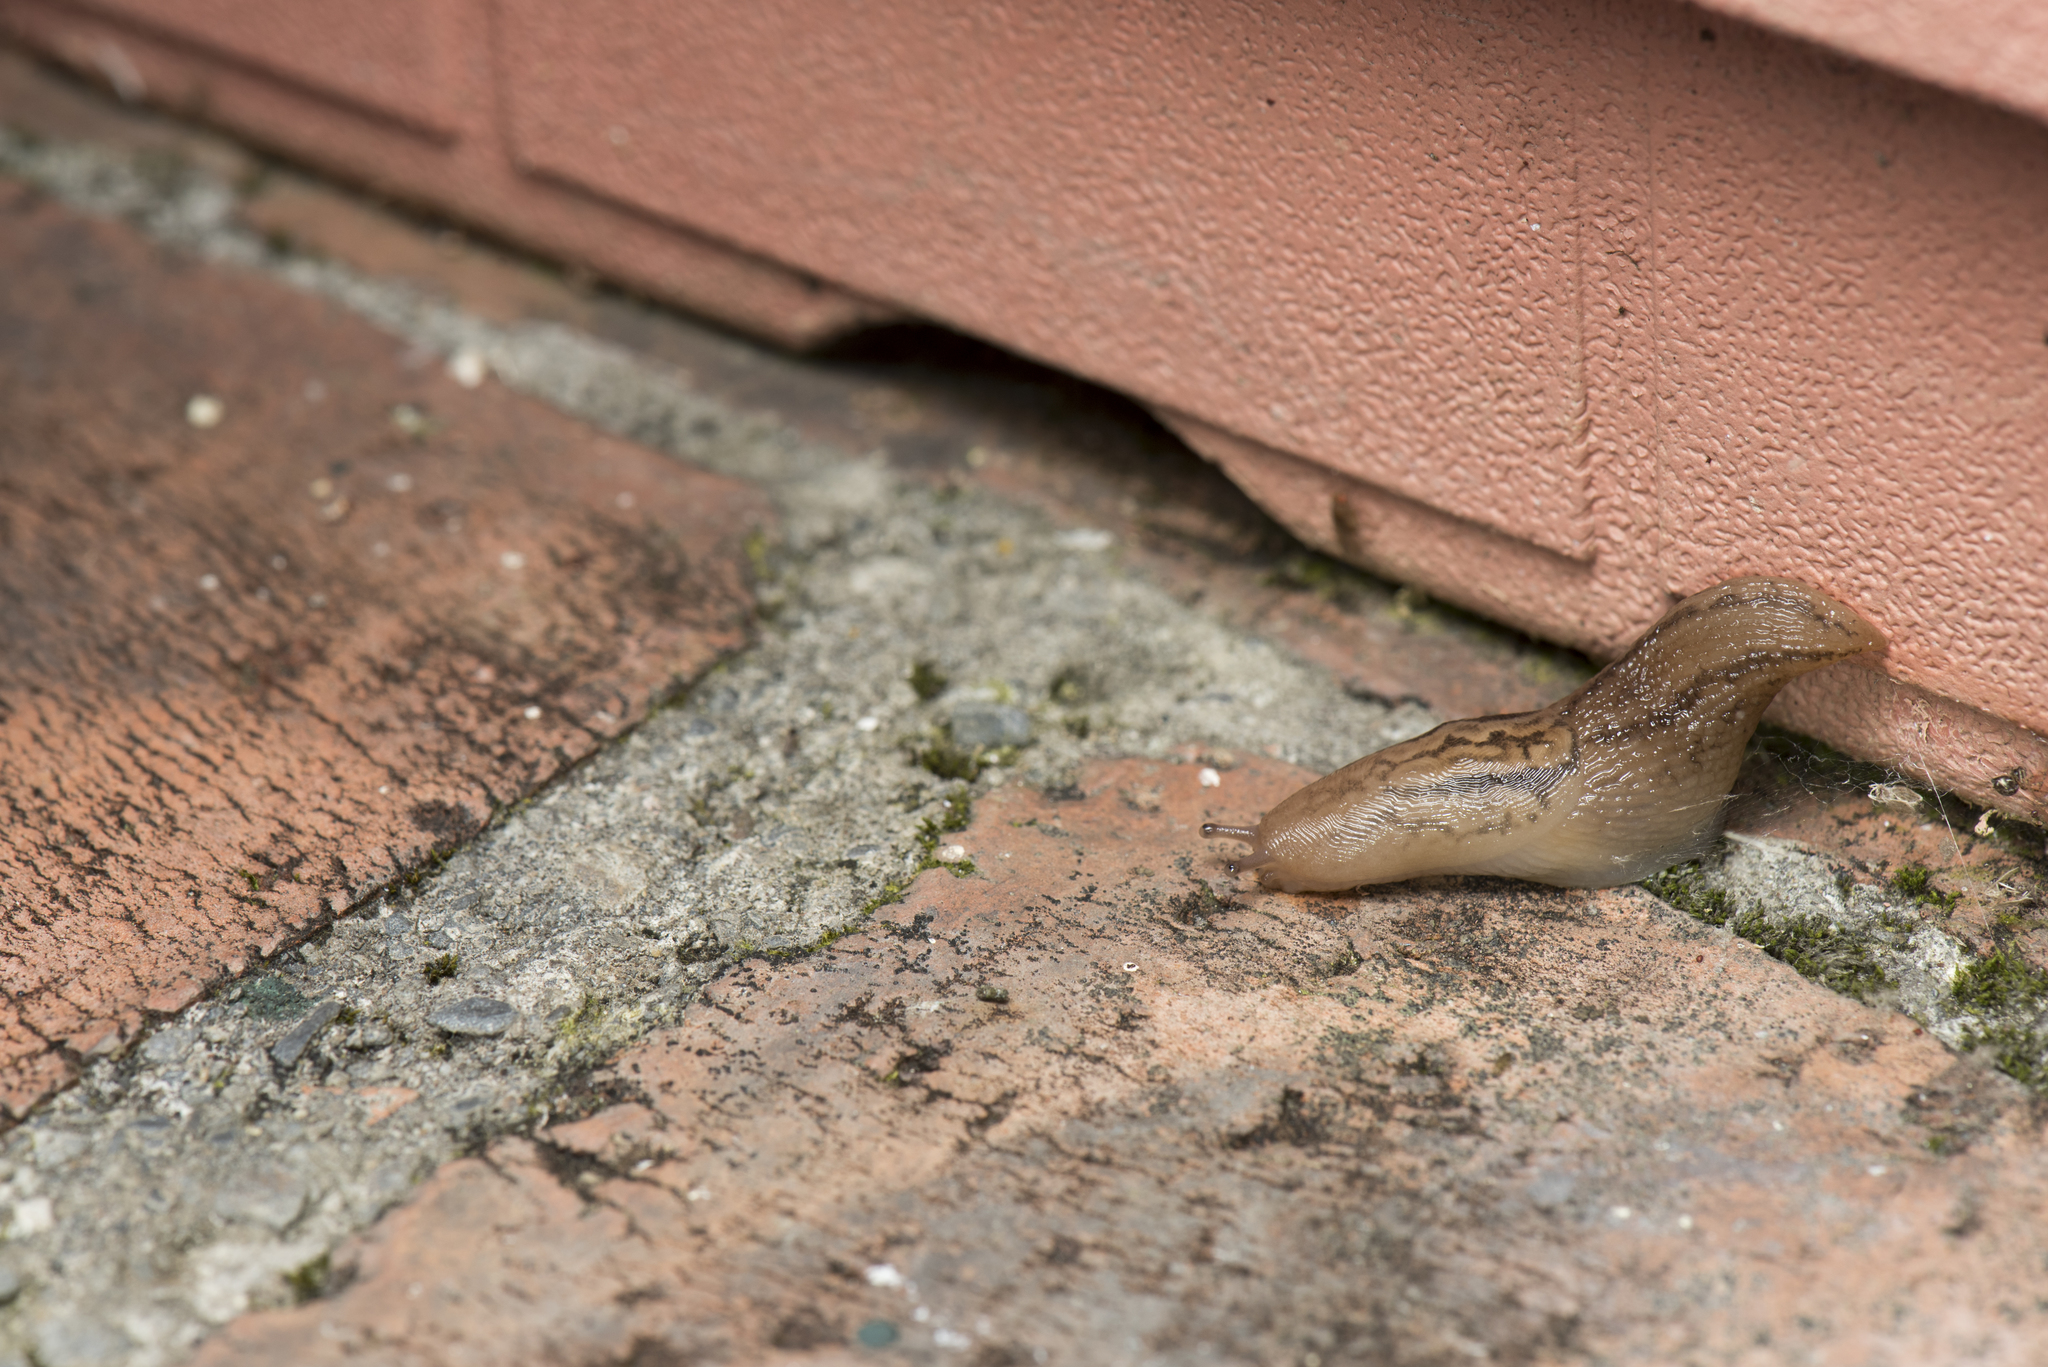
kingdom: Animalia
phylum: Mollusca
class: Gastropoda
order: Stylommatophora
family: Limacidae
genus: Ambigolimax
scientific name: Ambigolimax valentianus
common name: Greenhouse slug
